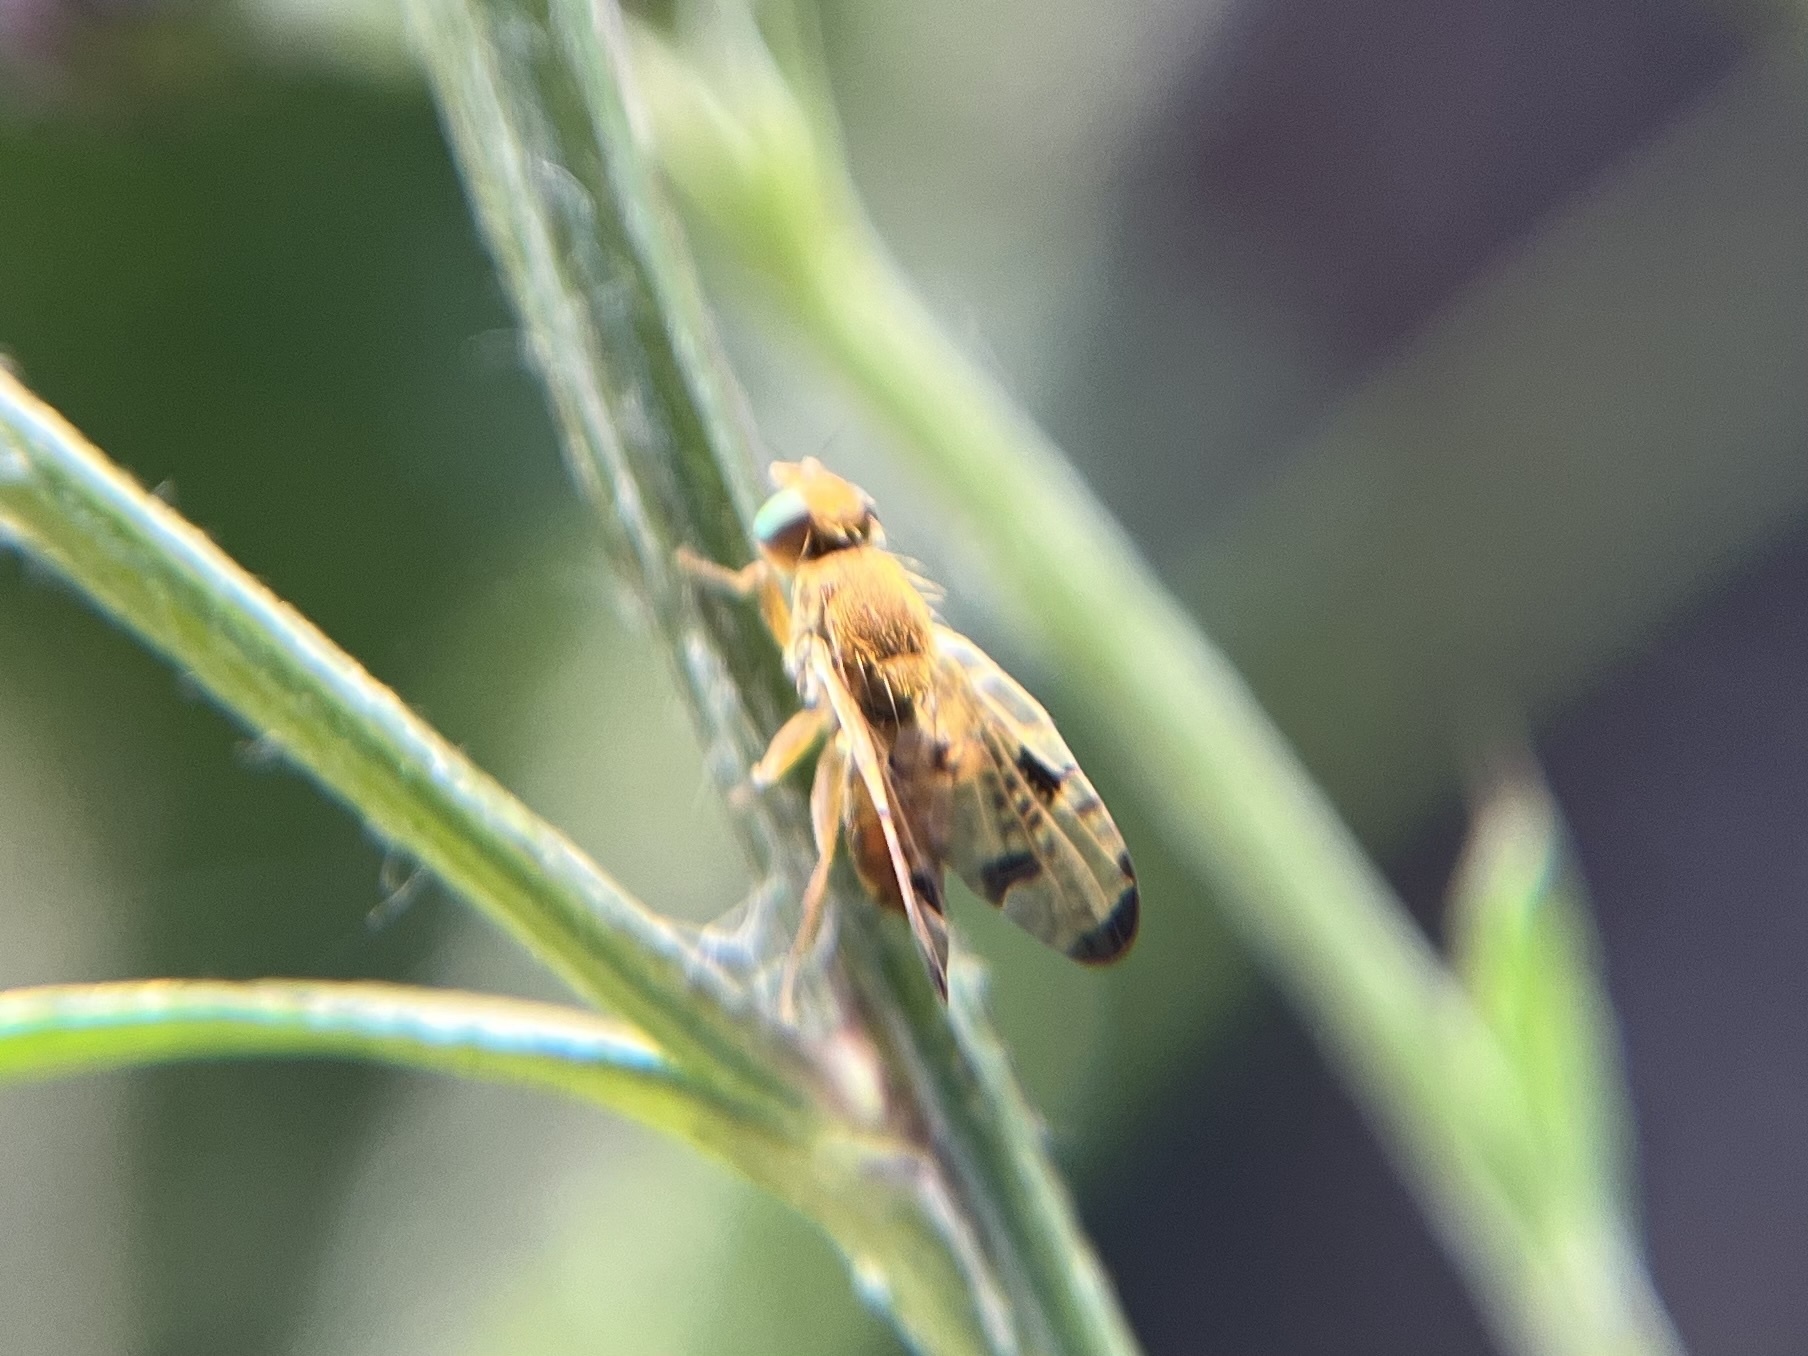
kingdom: Animalia
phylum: Arthropoda
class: Insecta
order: Diptera
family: Tephritidae
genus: Xyphosia
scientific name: Xyphosia miliaria
